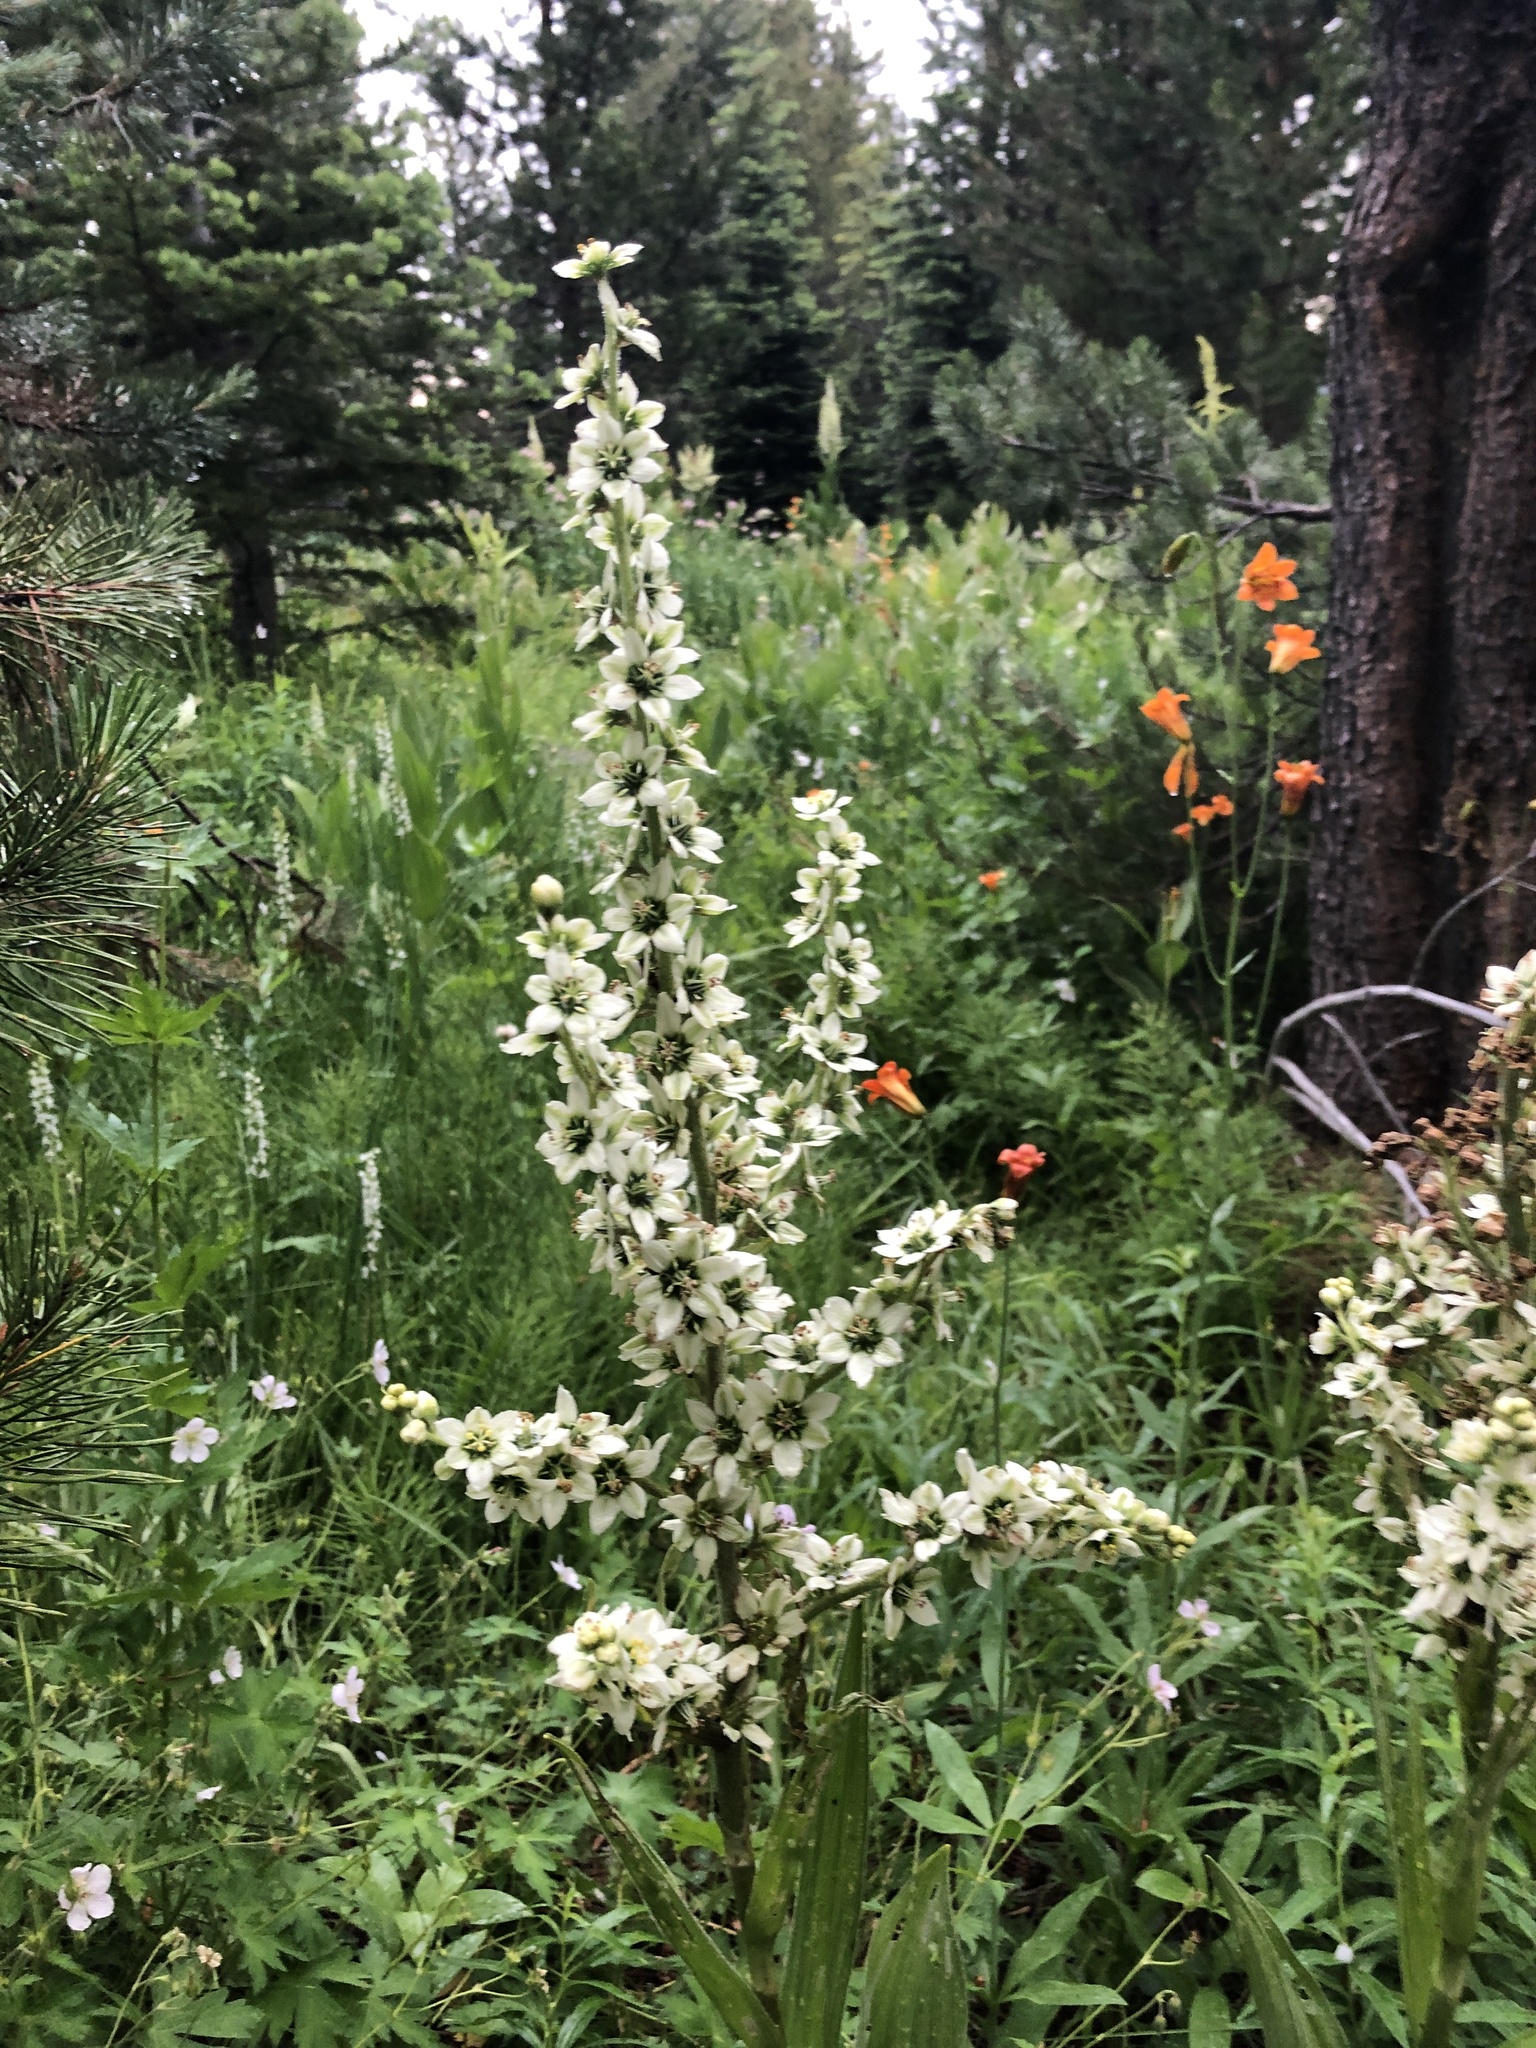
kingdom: Plantae
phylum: Tracheophyta
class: Liliopsida
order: Liliales
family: Melanthiaceae
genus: Veratrum
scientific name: Veratrum californicum
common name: California veratrum
